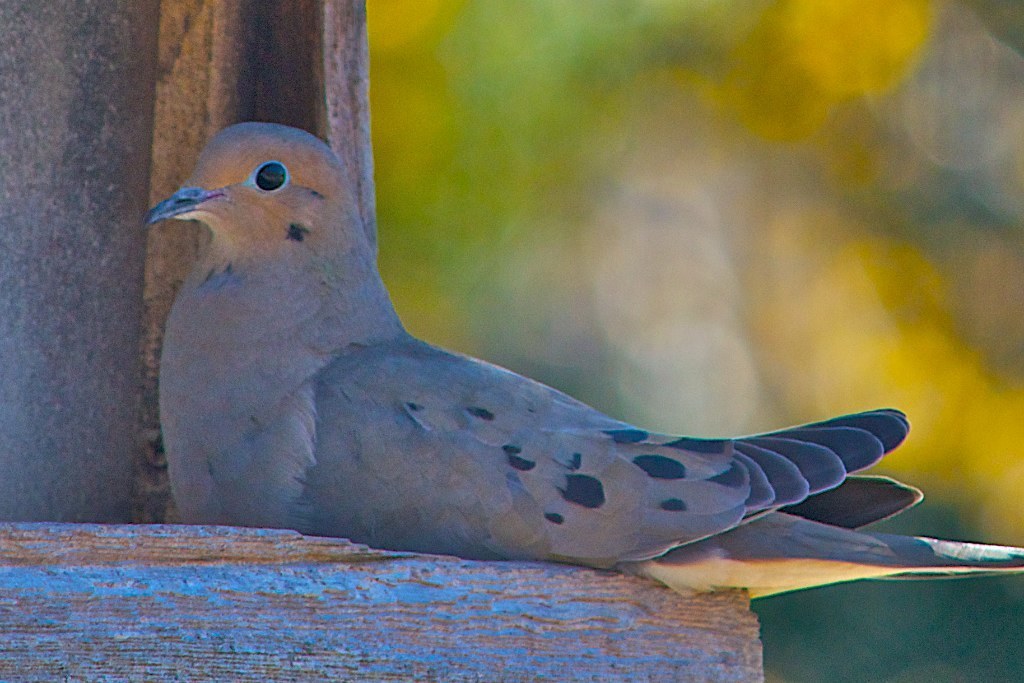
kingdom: Animalia
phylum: Chordata
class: Aves
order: Columbiformes
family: Columbidae
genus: Zenaida
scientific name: Zenaida macroura
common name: Mourning dove
